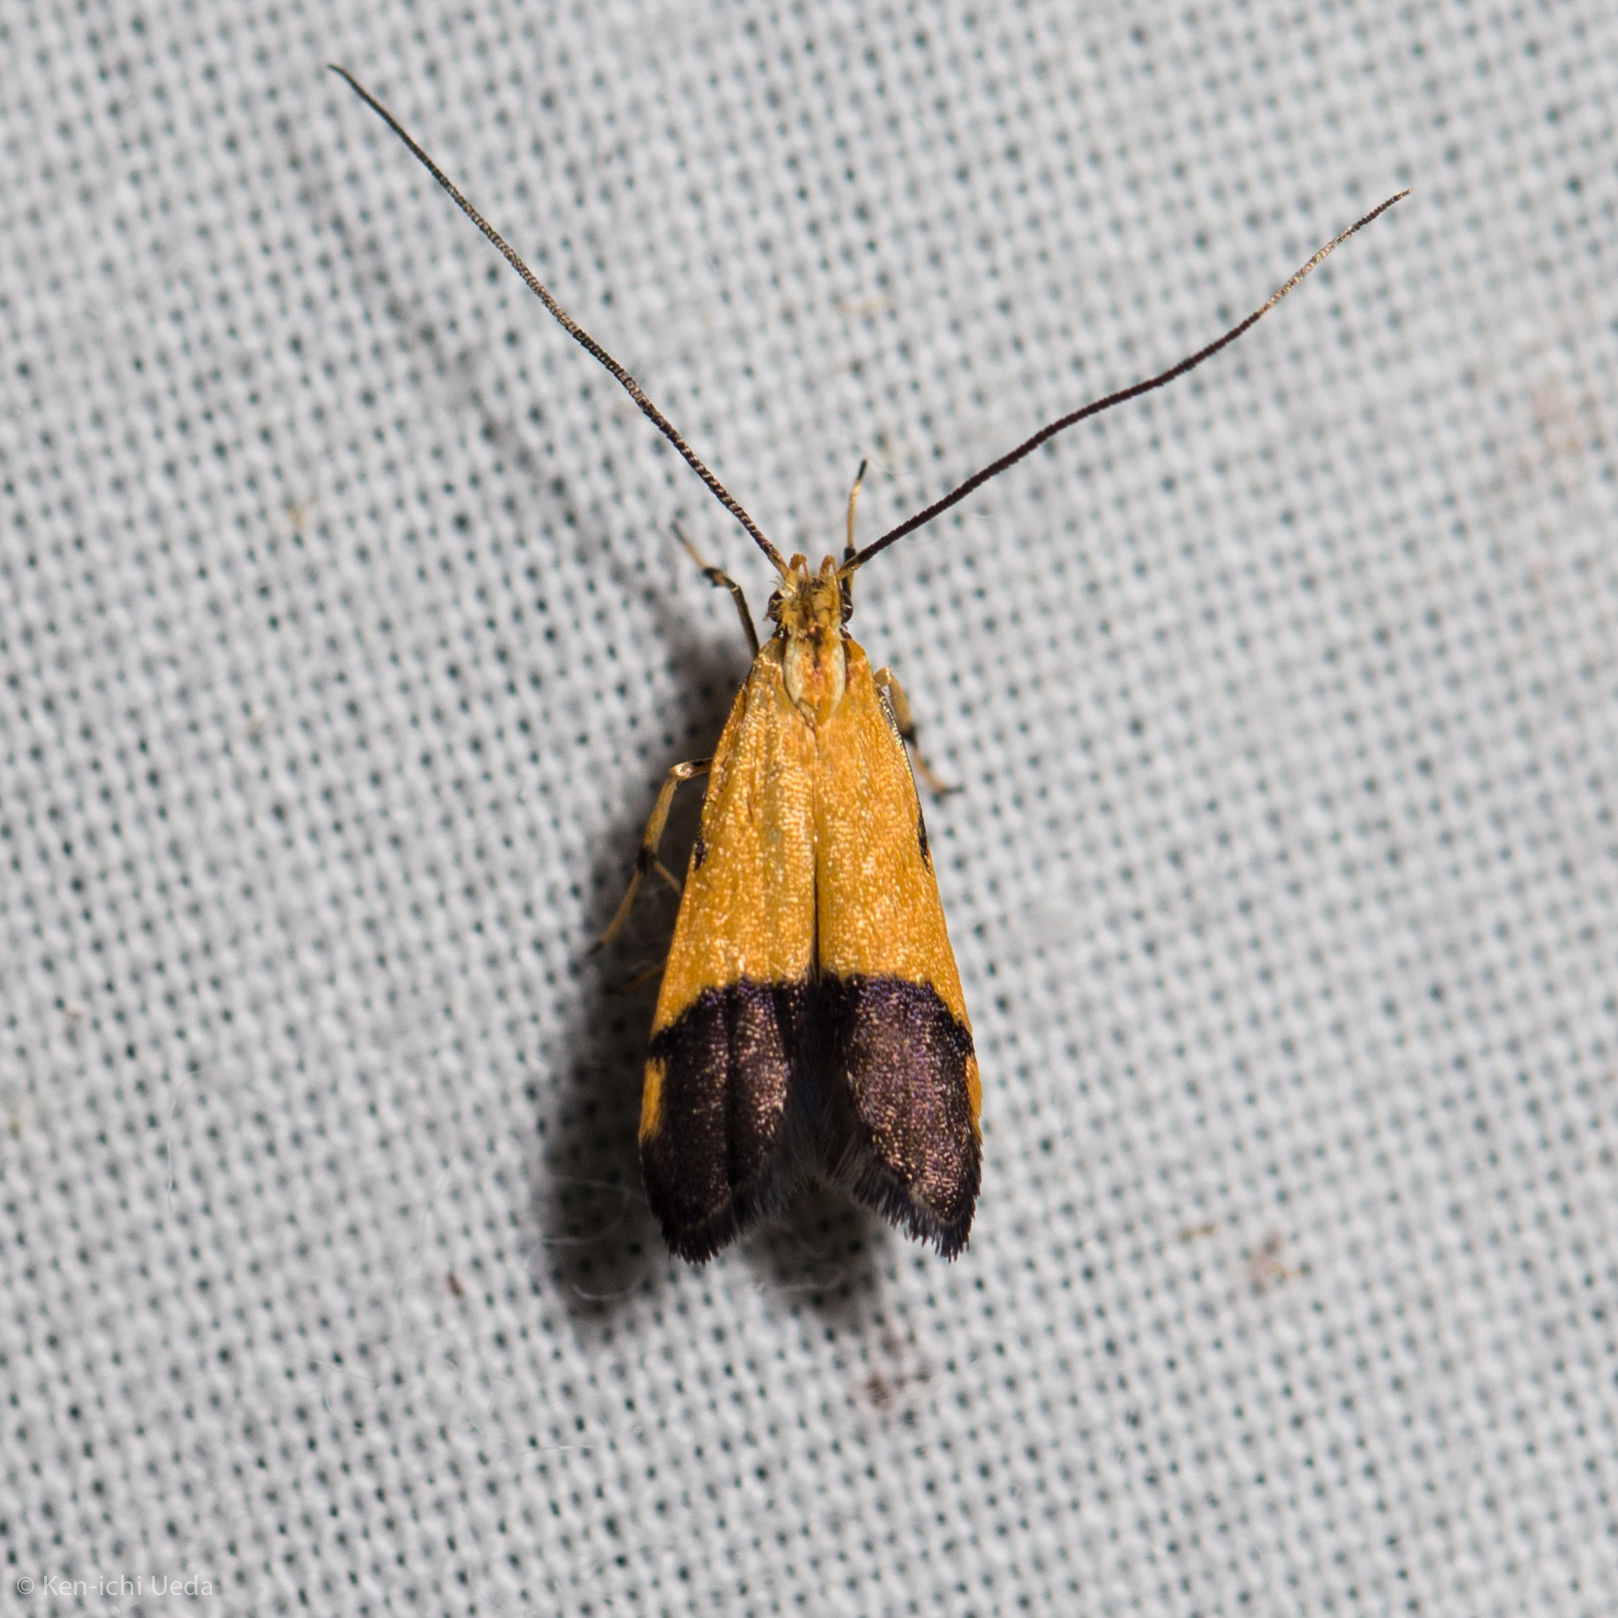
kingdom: Animalia
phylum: Arthropoda
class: Insecta
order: Lepidoptera
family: Lecithoceridae
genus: Crocanthes
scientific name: Crocanthes micradelpha
